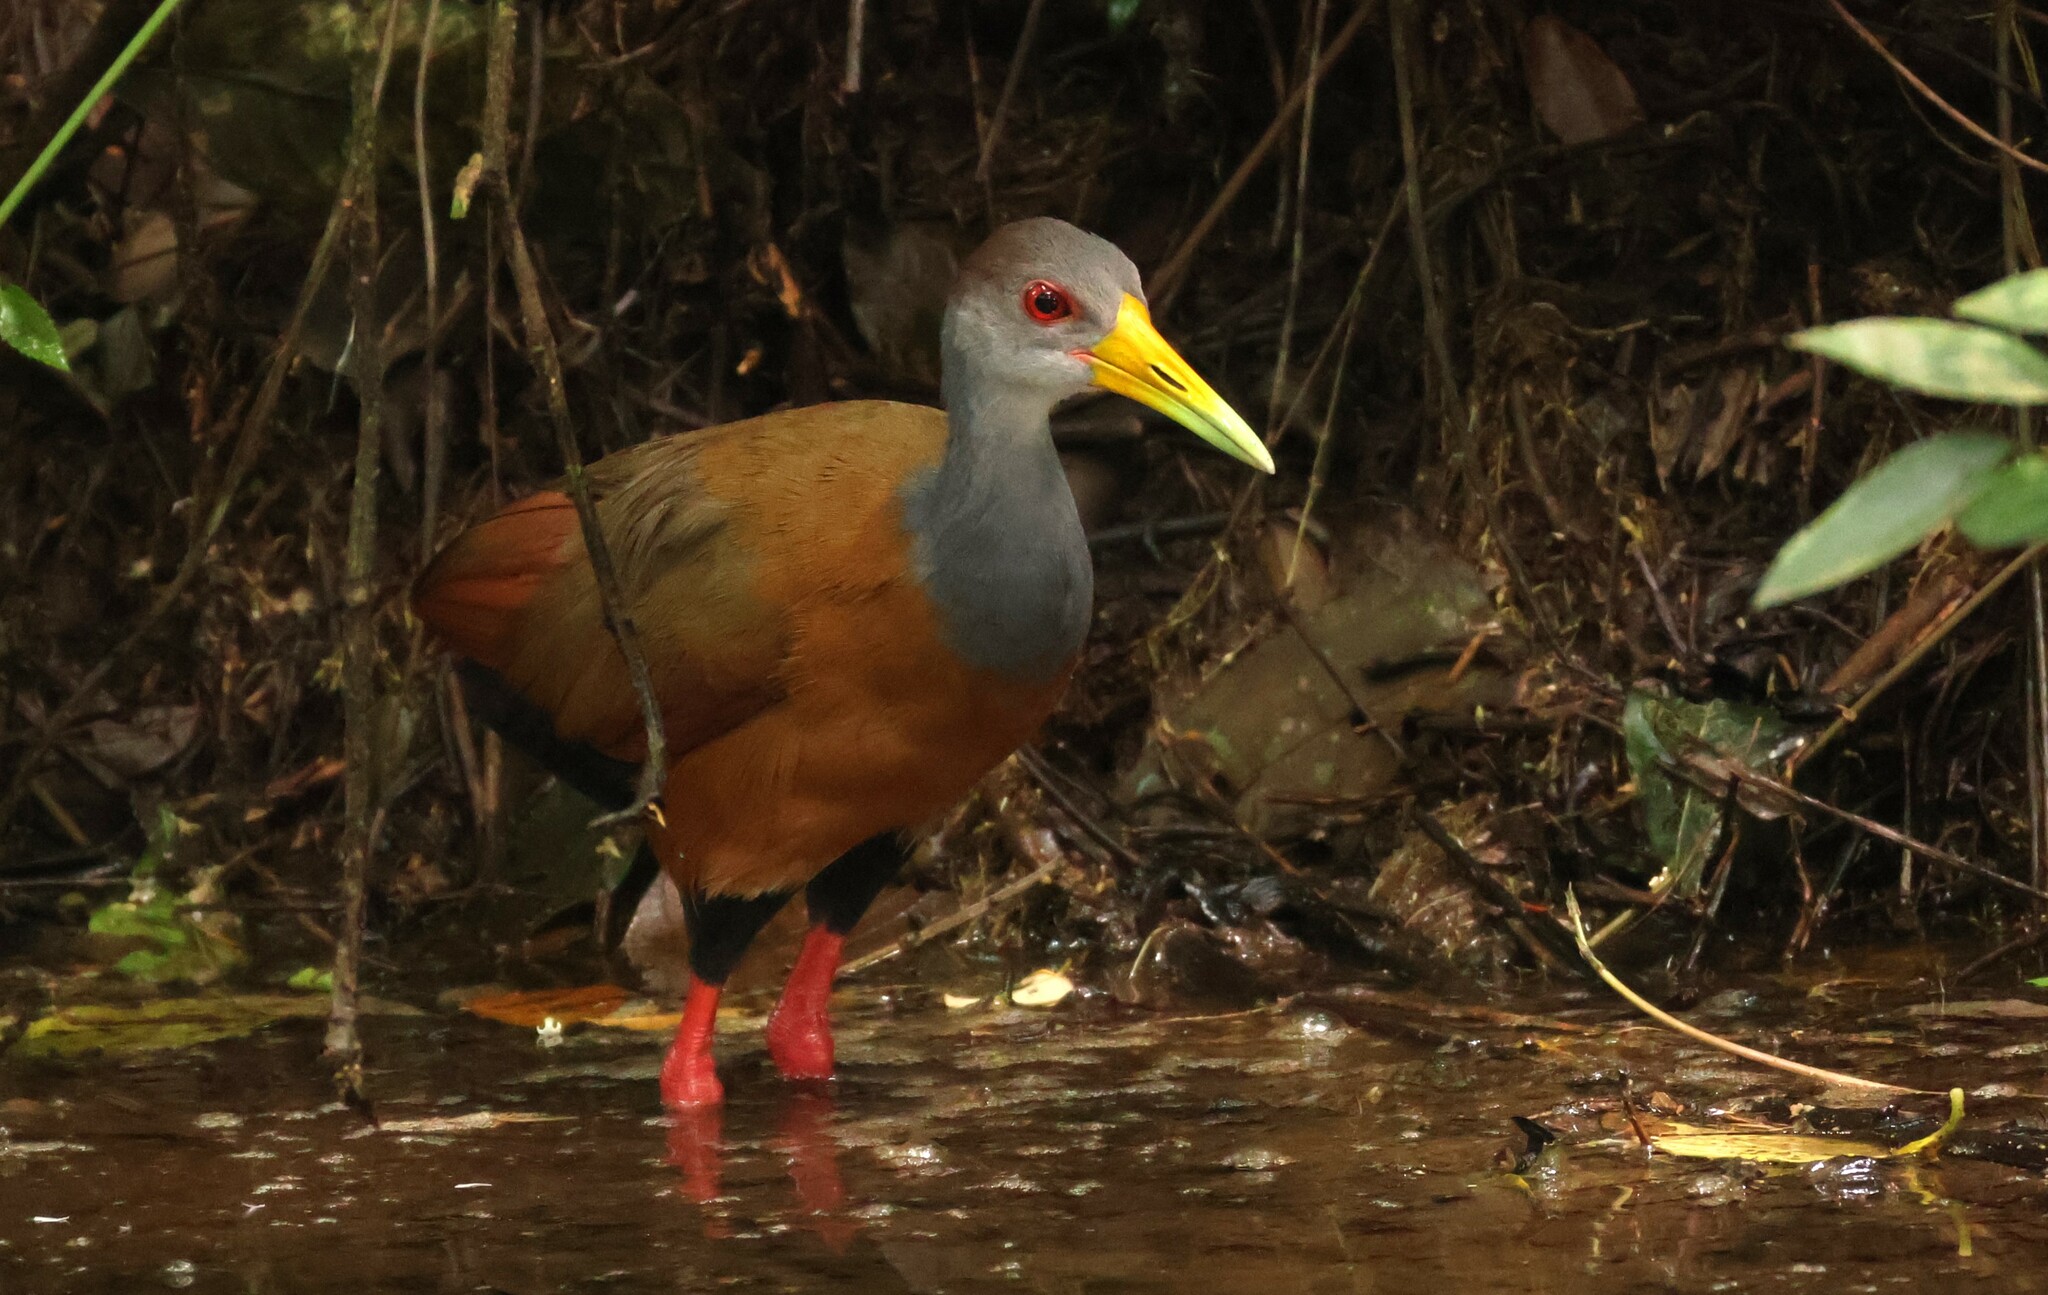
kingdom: Animalia
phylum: Chordata
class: Aves
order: Gruiformes
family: Rallidae
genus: Aramides
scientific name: Aramides albiventris
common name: Russet-naped wood-rail
